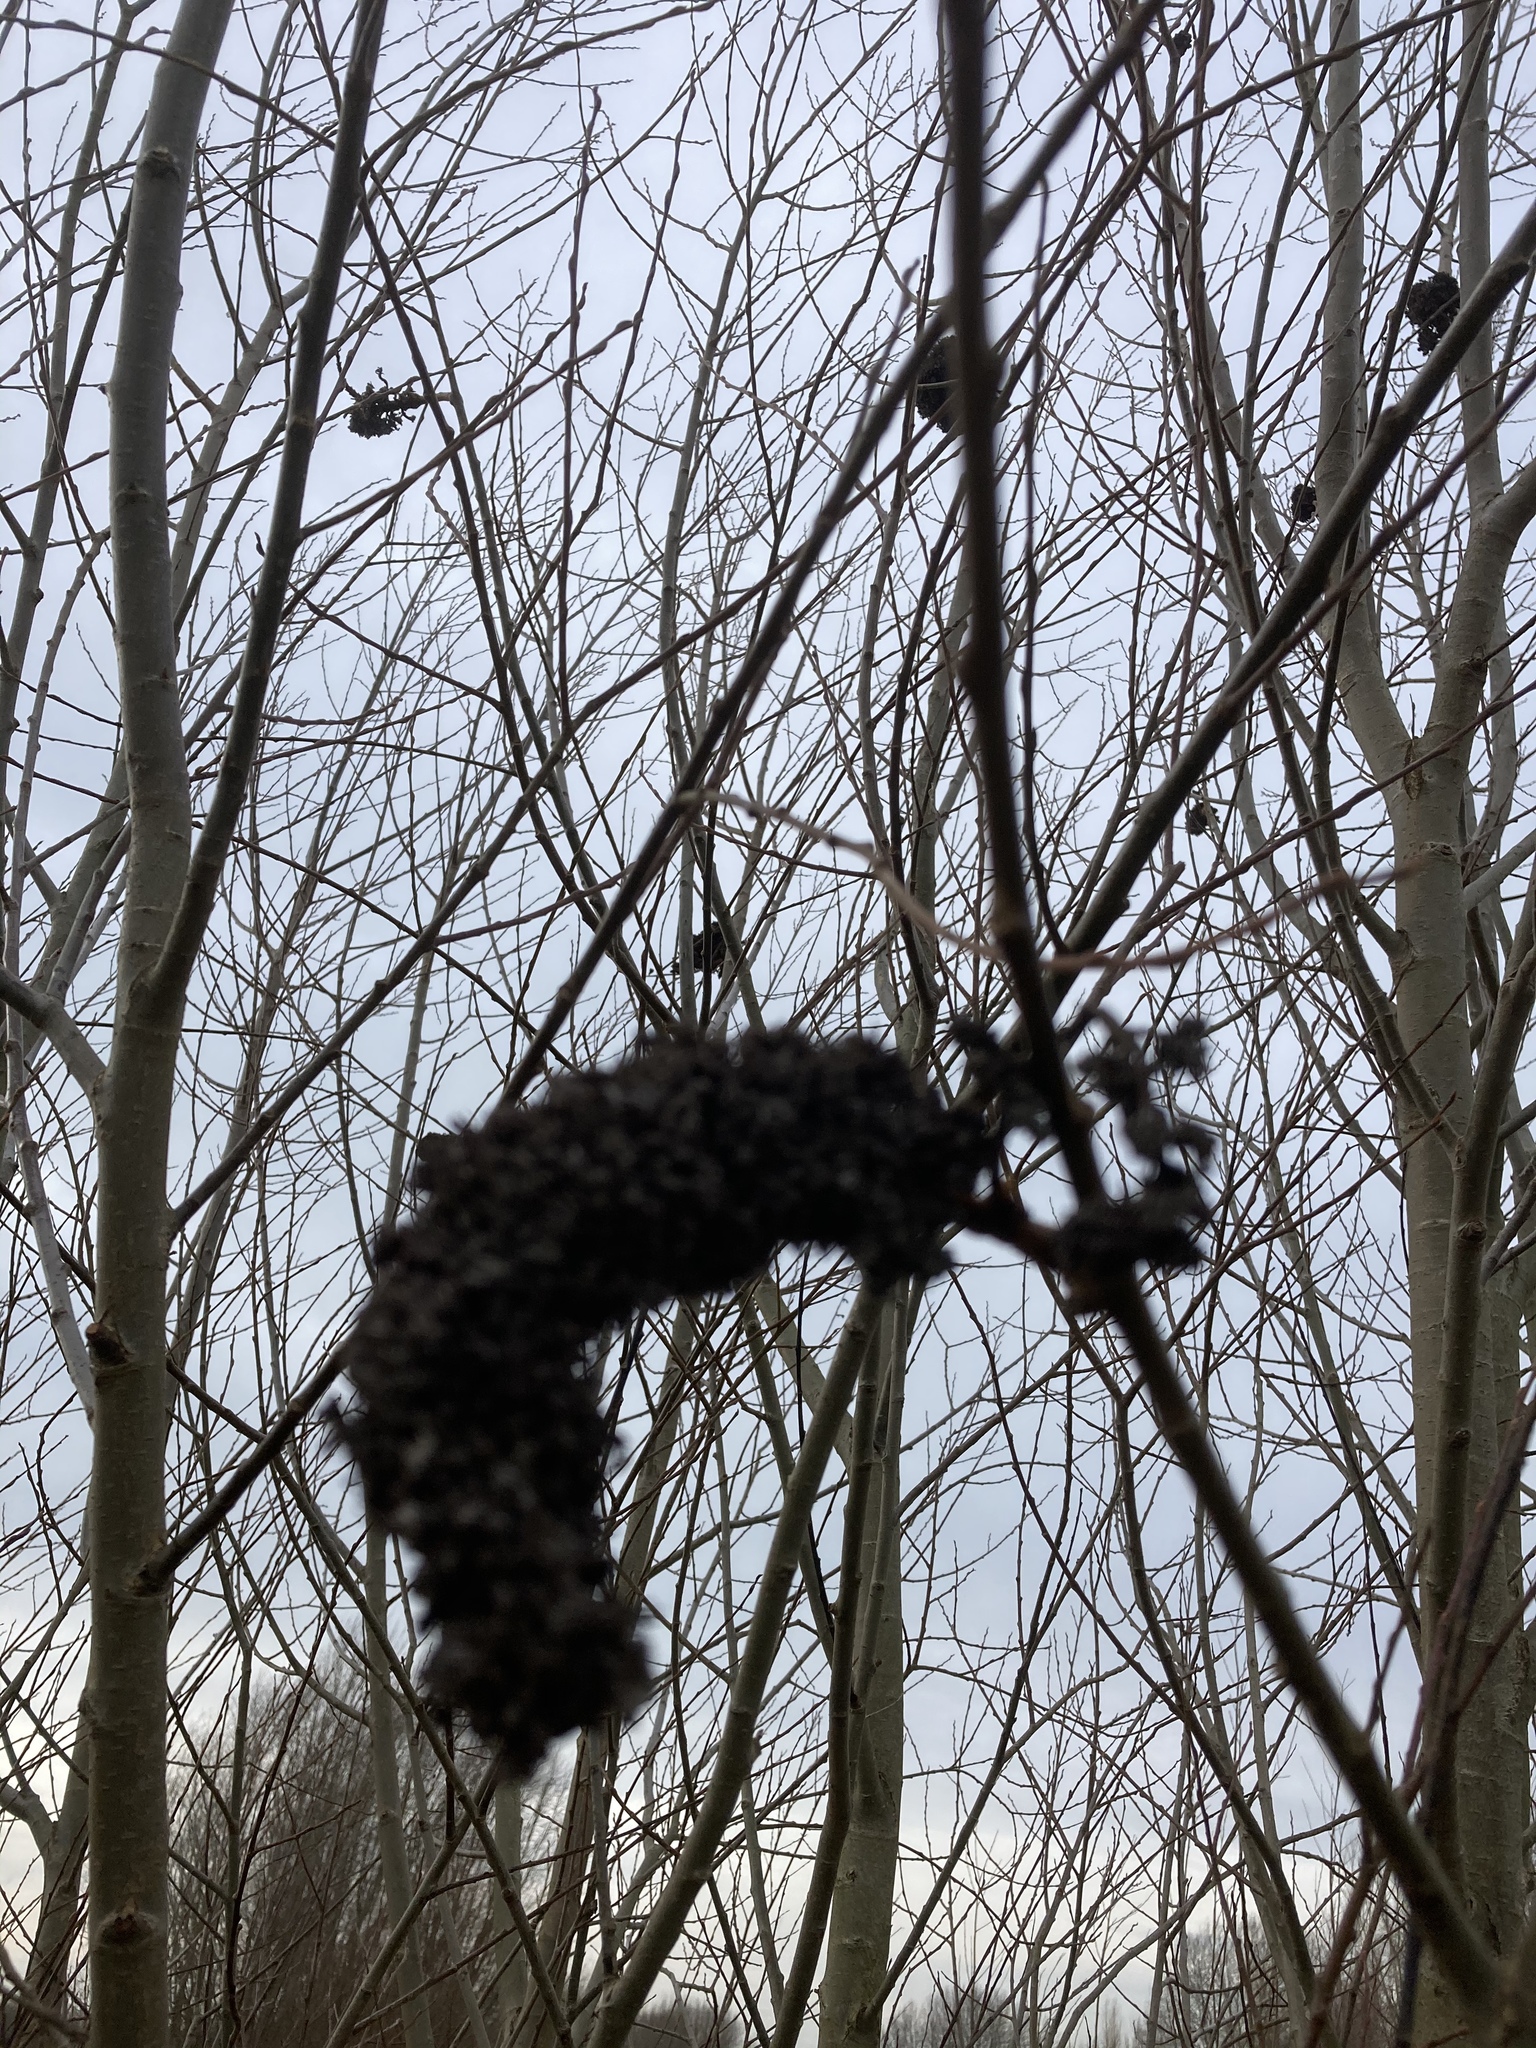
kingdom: Animalia
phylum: Arthropoda
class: Arachnida
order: Trombidiformes
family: Eriophyidae
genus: Stenacis
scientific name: Stenacis triradiatus
